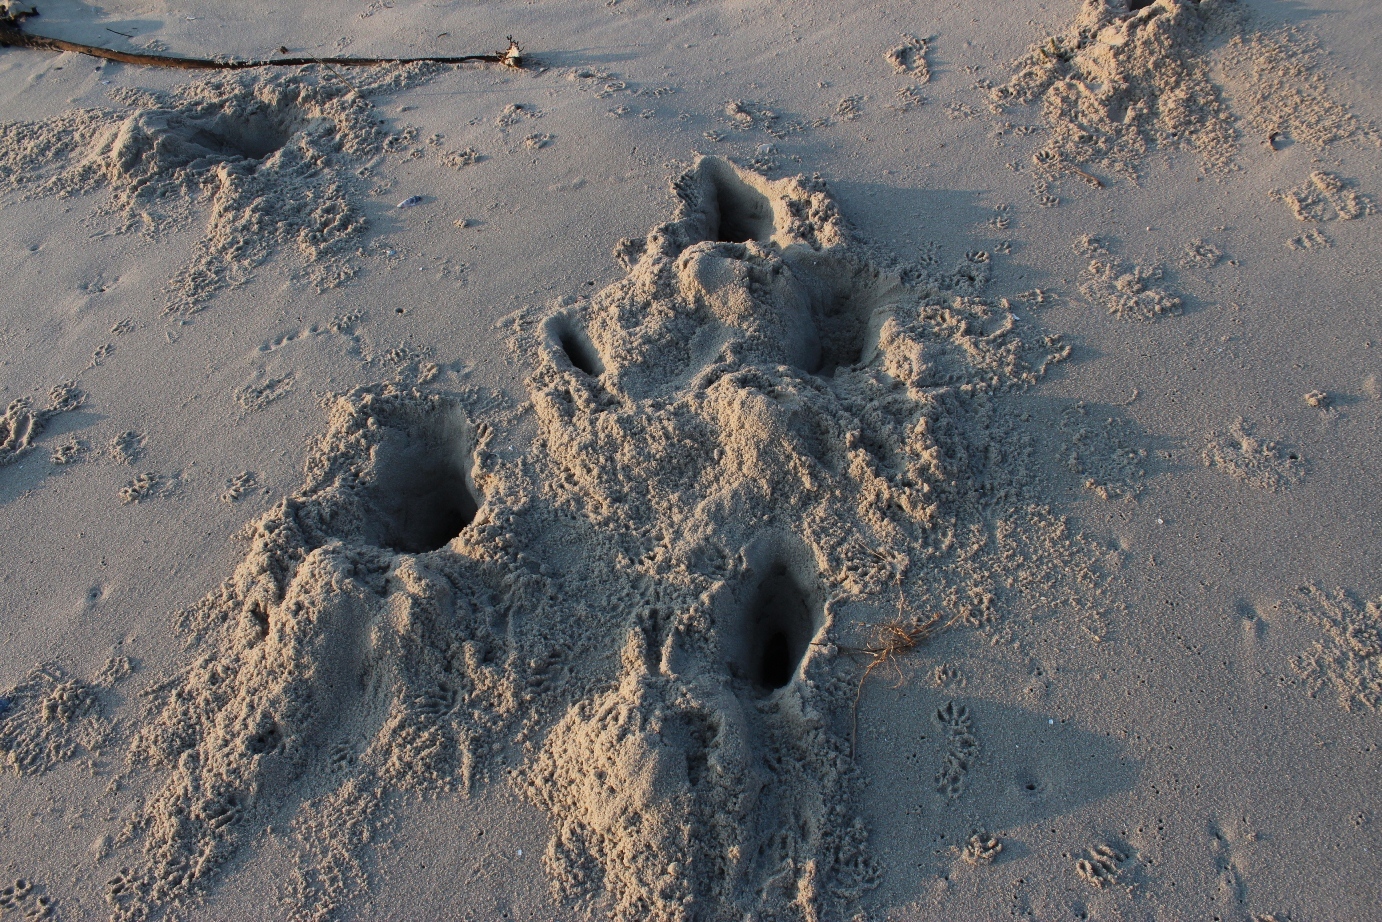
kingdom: Animalia
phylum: Chordata
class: Mammalia
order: Carnivora
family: Mustelidae
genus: Poecilogale
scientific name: Poecilogale albinucha
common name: African striped weasel
